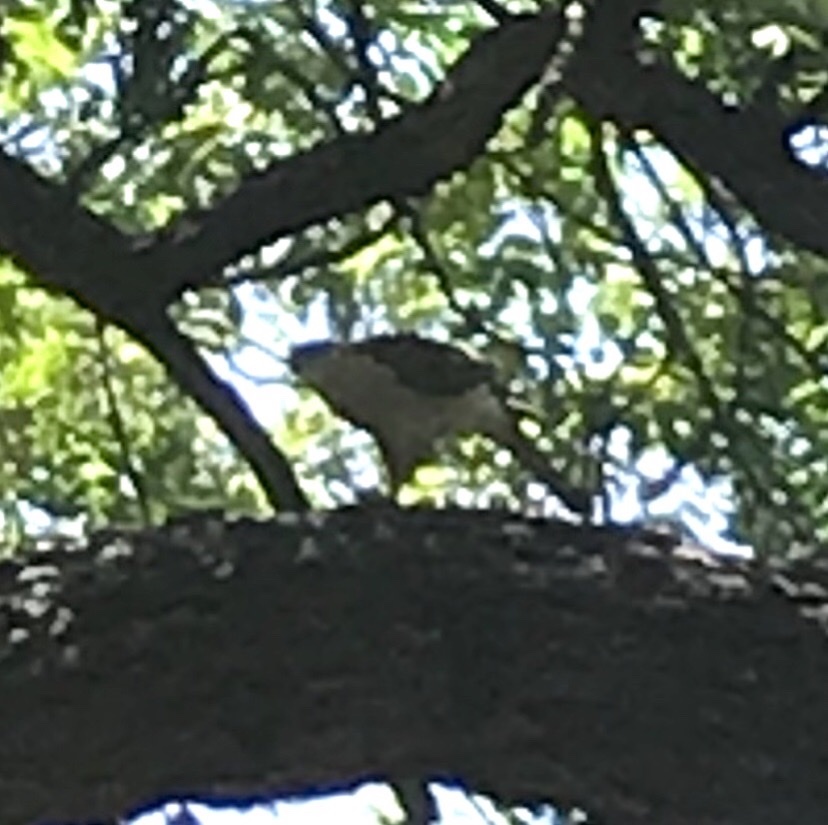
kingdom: Animalia
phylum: Chordata
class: Aves
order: Accipitriformes
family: Accipitridae
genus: Accipiter
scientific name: Accipiter cooperii
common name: Cooper's hawk
